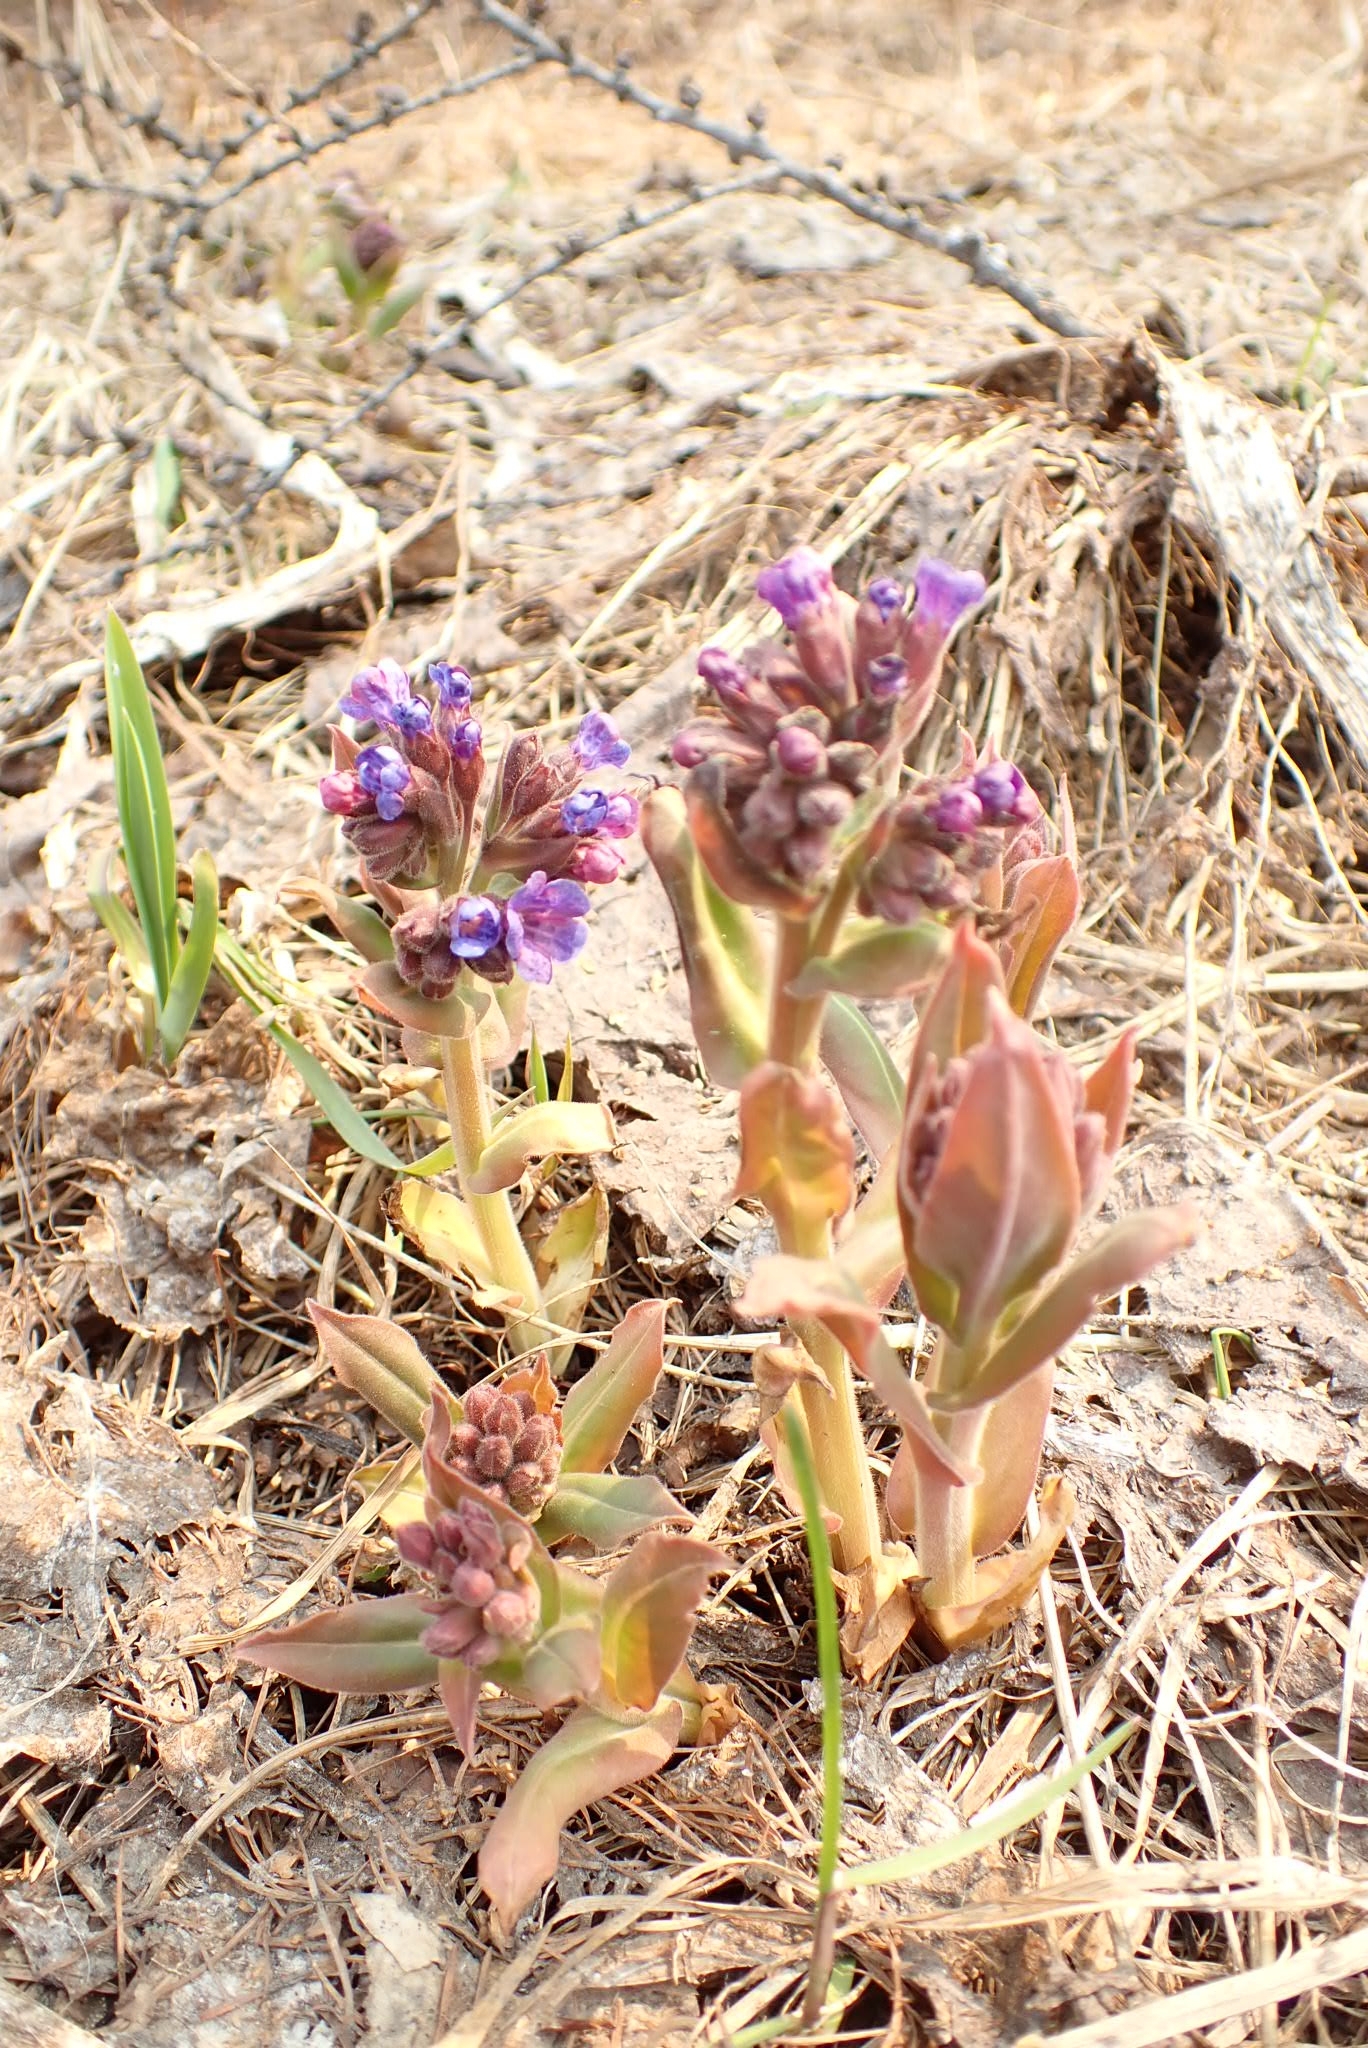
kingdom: Plantae
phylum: Tracheophyta
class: Magnoliopsida
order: Boraginales
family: Boraginaceae
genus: Pulmonaria
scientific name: Pulmonaria mollis
